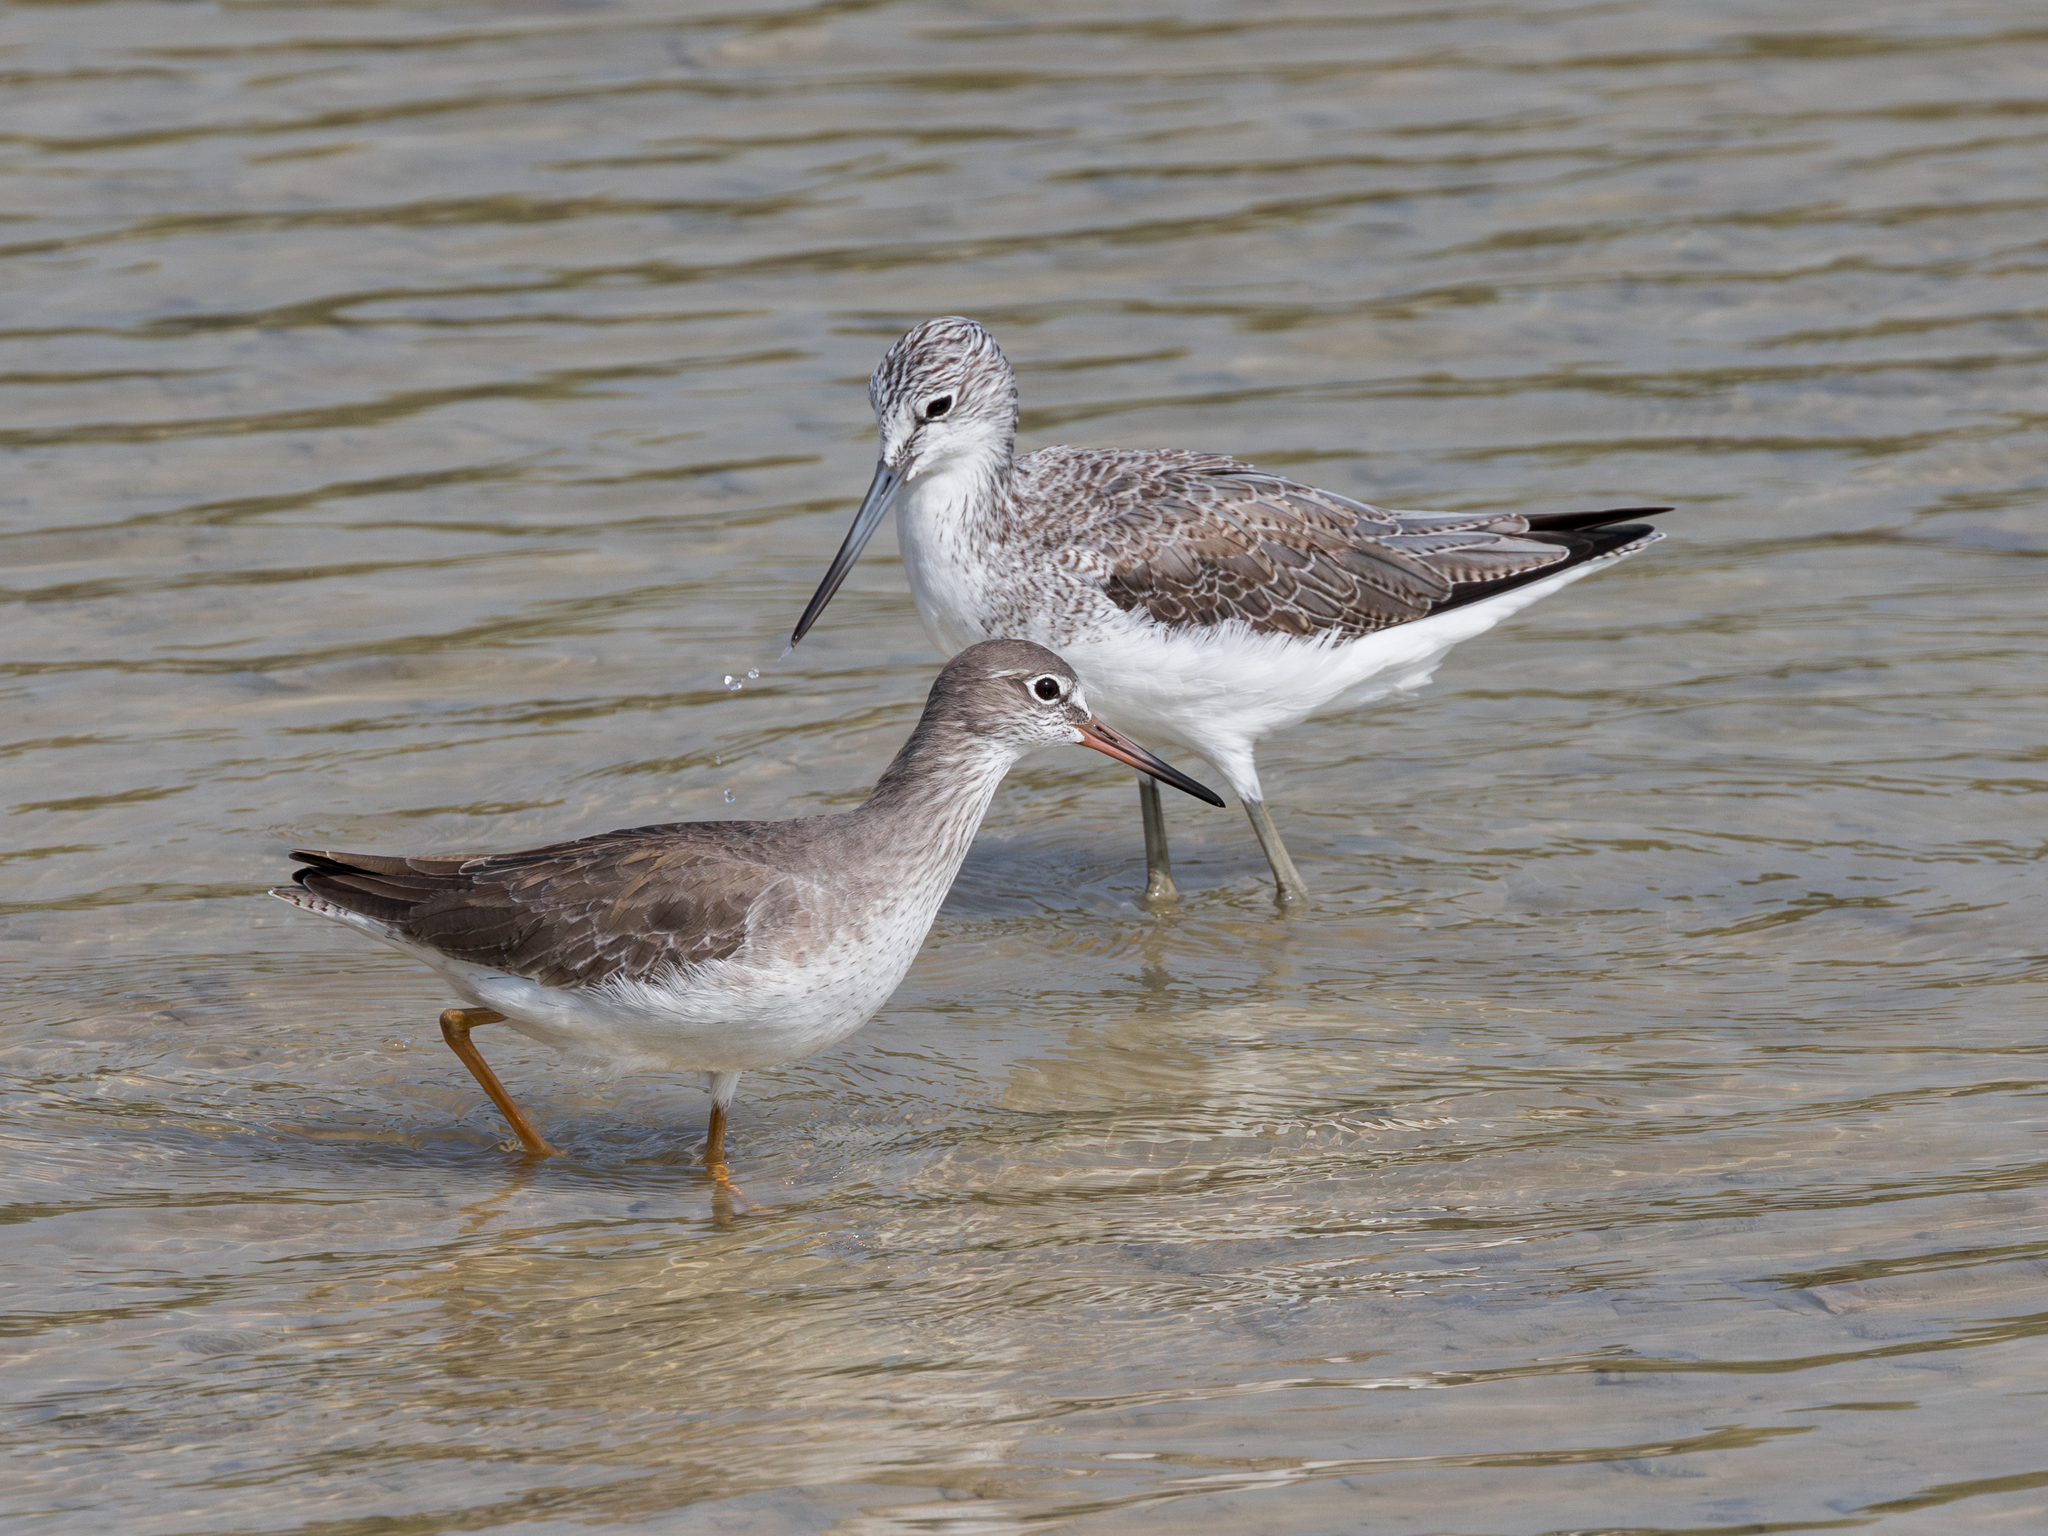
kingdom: Animalia
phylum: Chordata
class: Aves
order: Charadriiformes
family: Scolopacidae
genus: Tringa
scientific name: Tringa totanus
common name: Common redshank
